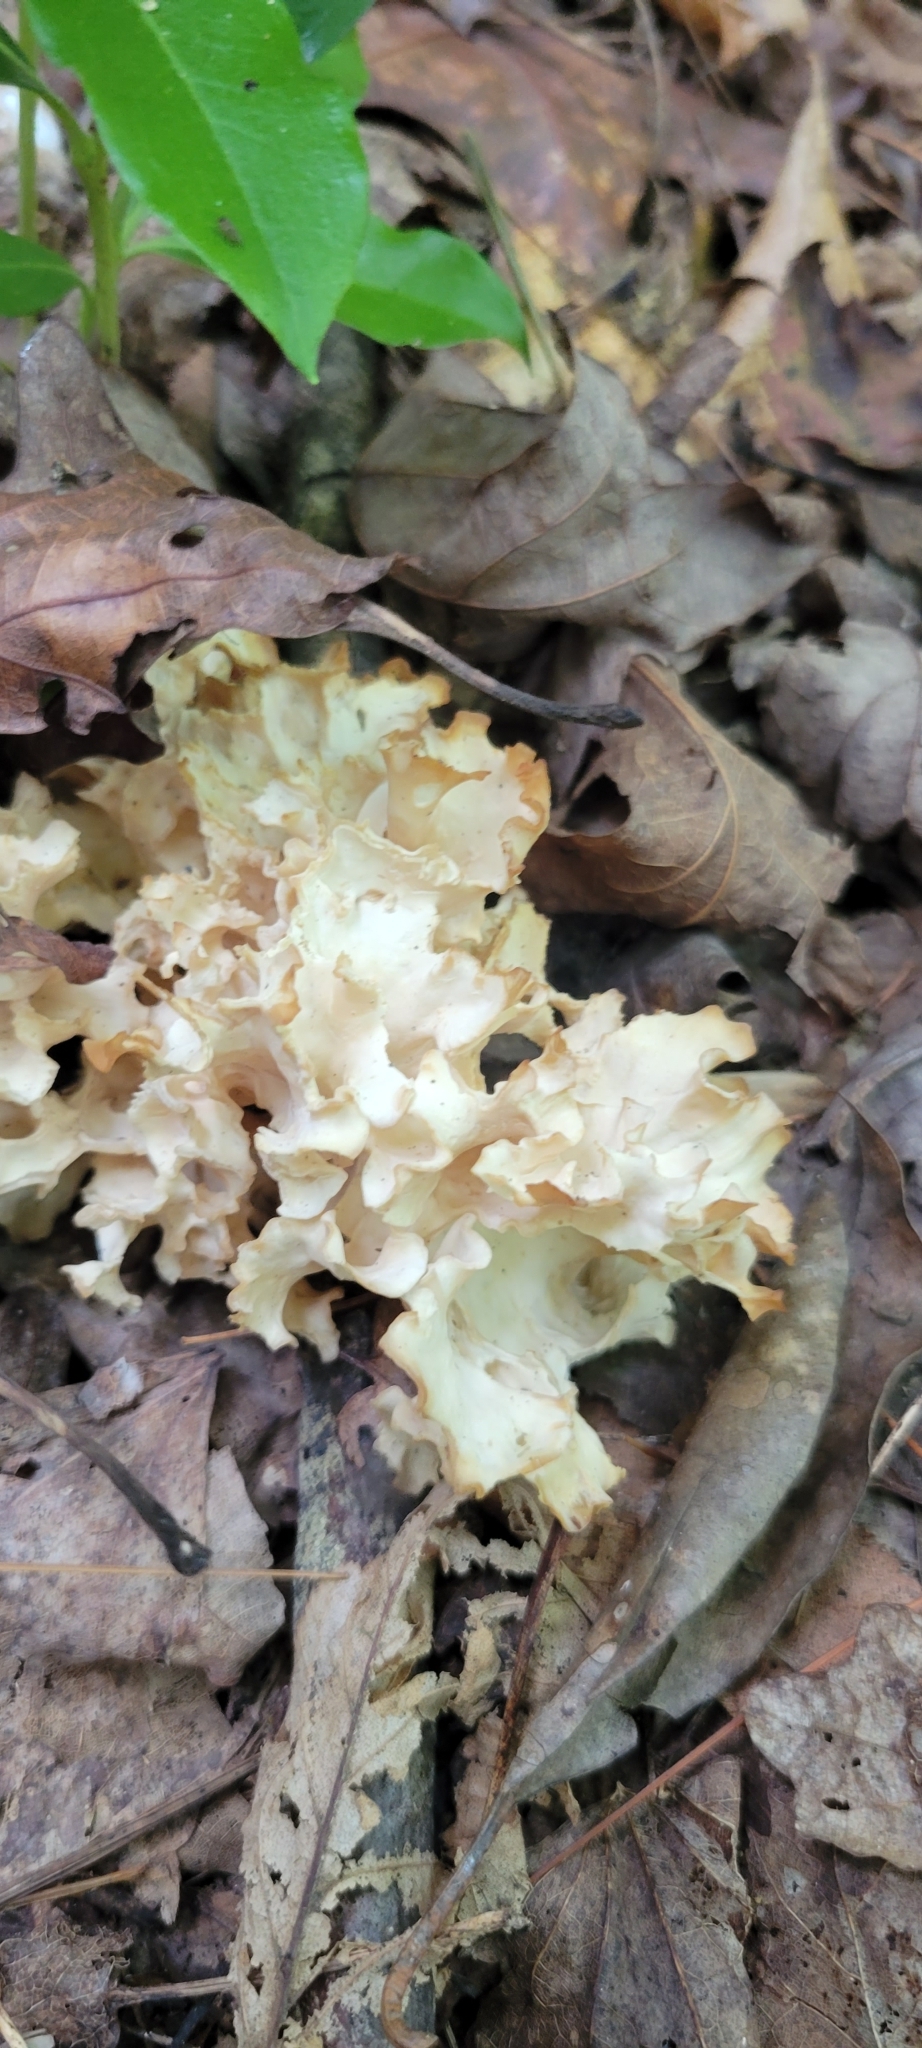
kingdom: Fungi
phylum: Basidiomycota
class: Agaricomycetes
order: Polyporales
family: Sparassidaceae
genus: Sparassis
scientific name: Sparassis americana
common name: American cauliflower mushroom
